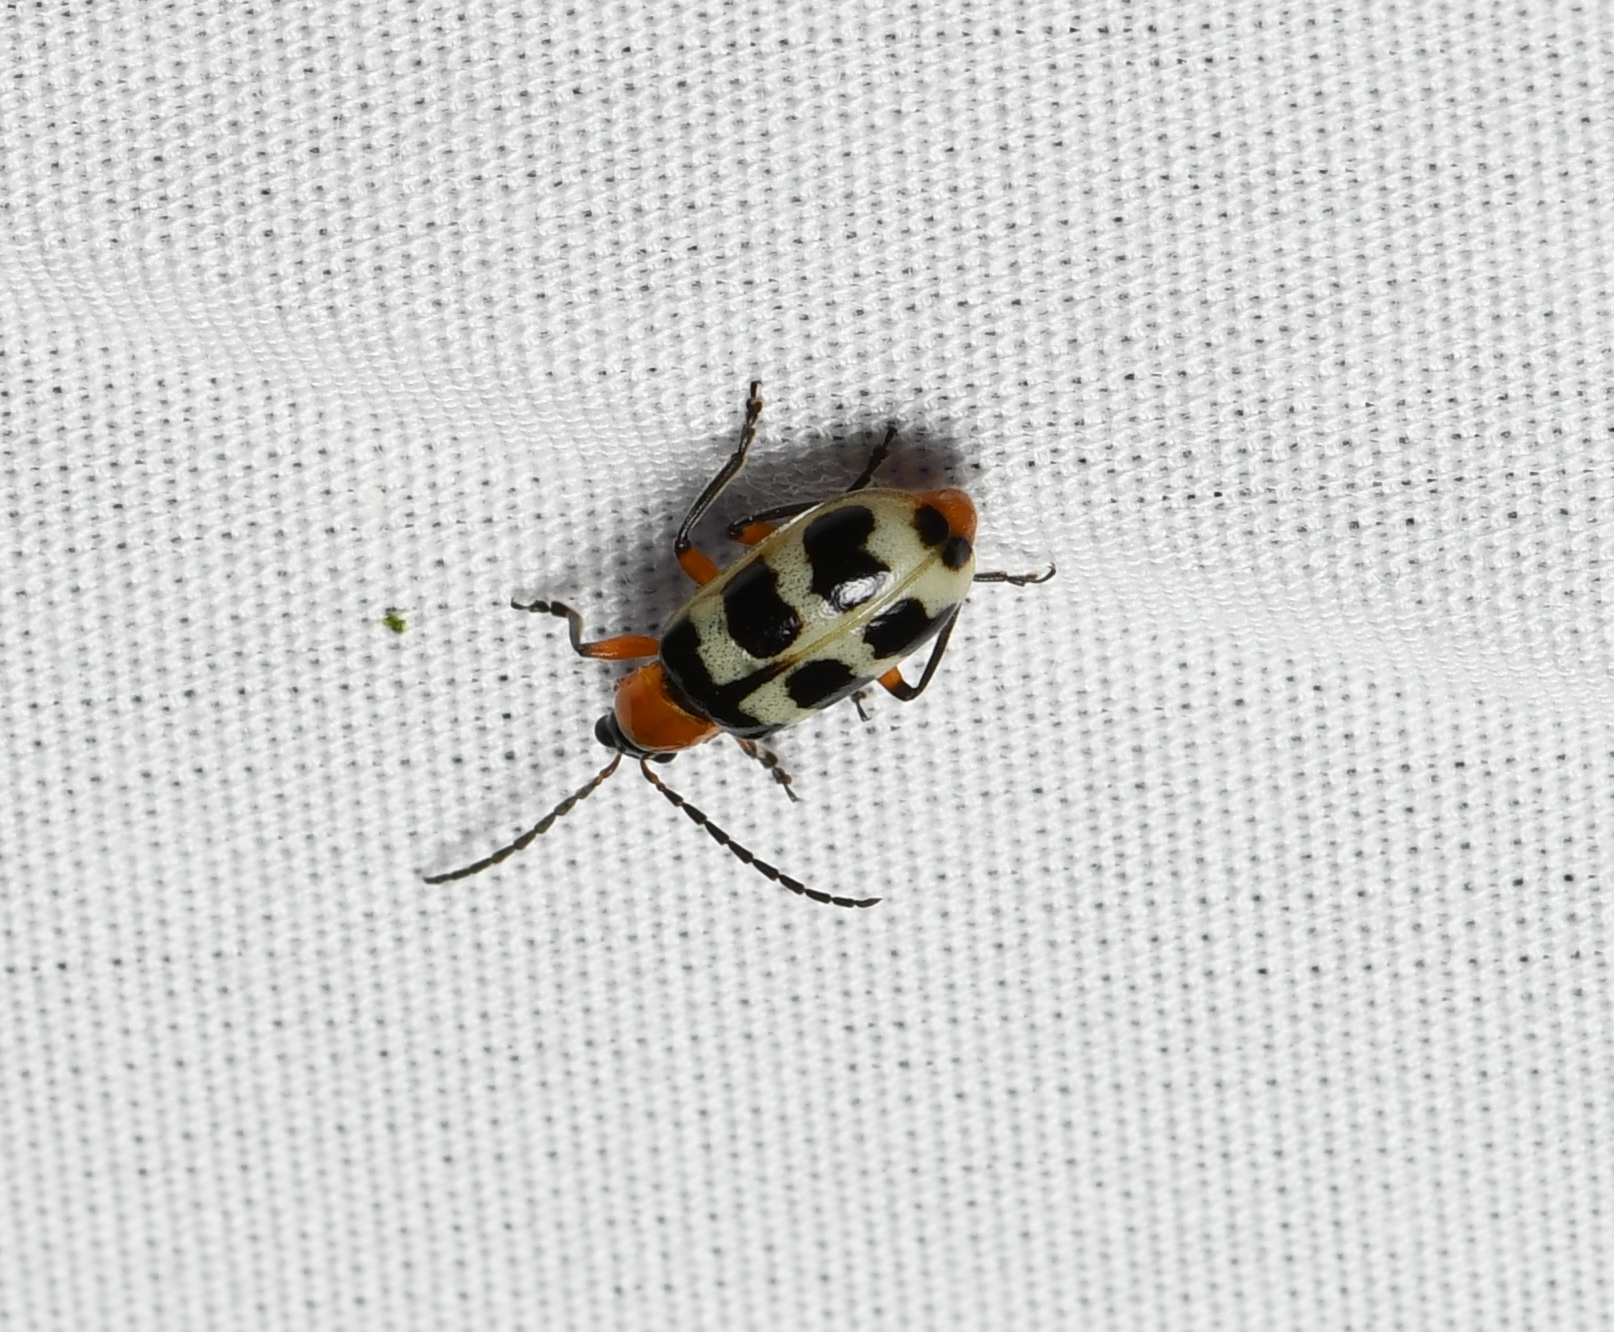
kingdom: Animalia
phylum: Arthropoda
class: Insecta
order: Coleoptera
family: Chrysomelidae
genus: Paranapiacaba
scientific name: Paranapiacaba tricincta
